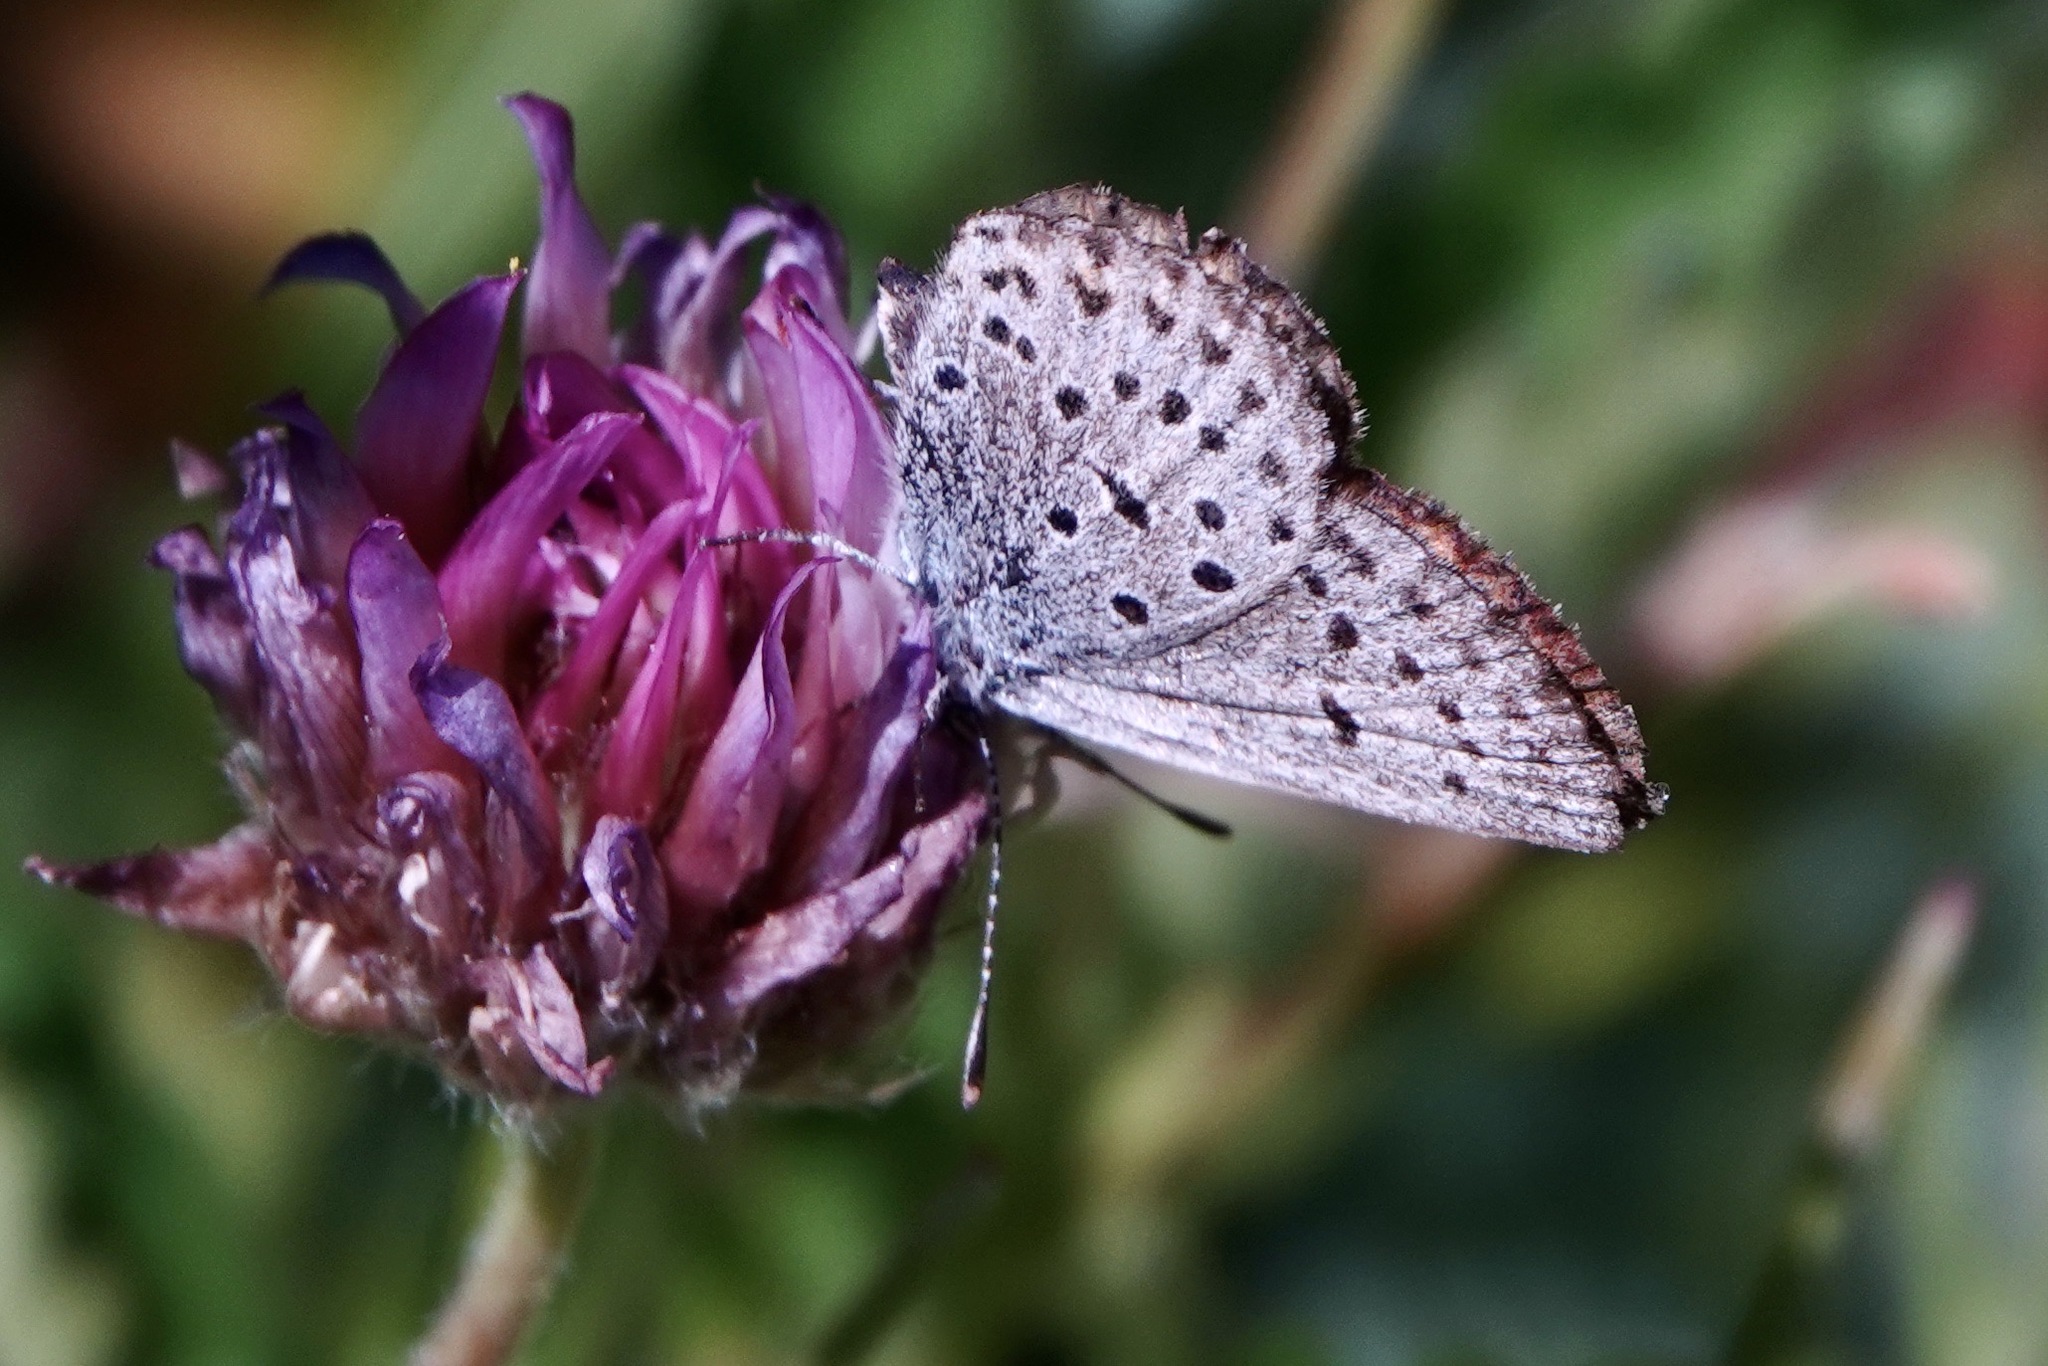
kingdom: Animalia
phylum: Arthropoda
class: Insecta
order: Lepidoptera
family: Lycaenidae
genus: Icaricia
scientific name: Icaricia saepiolus
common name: Greenish blue
